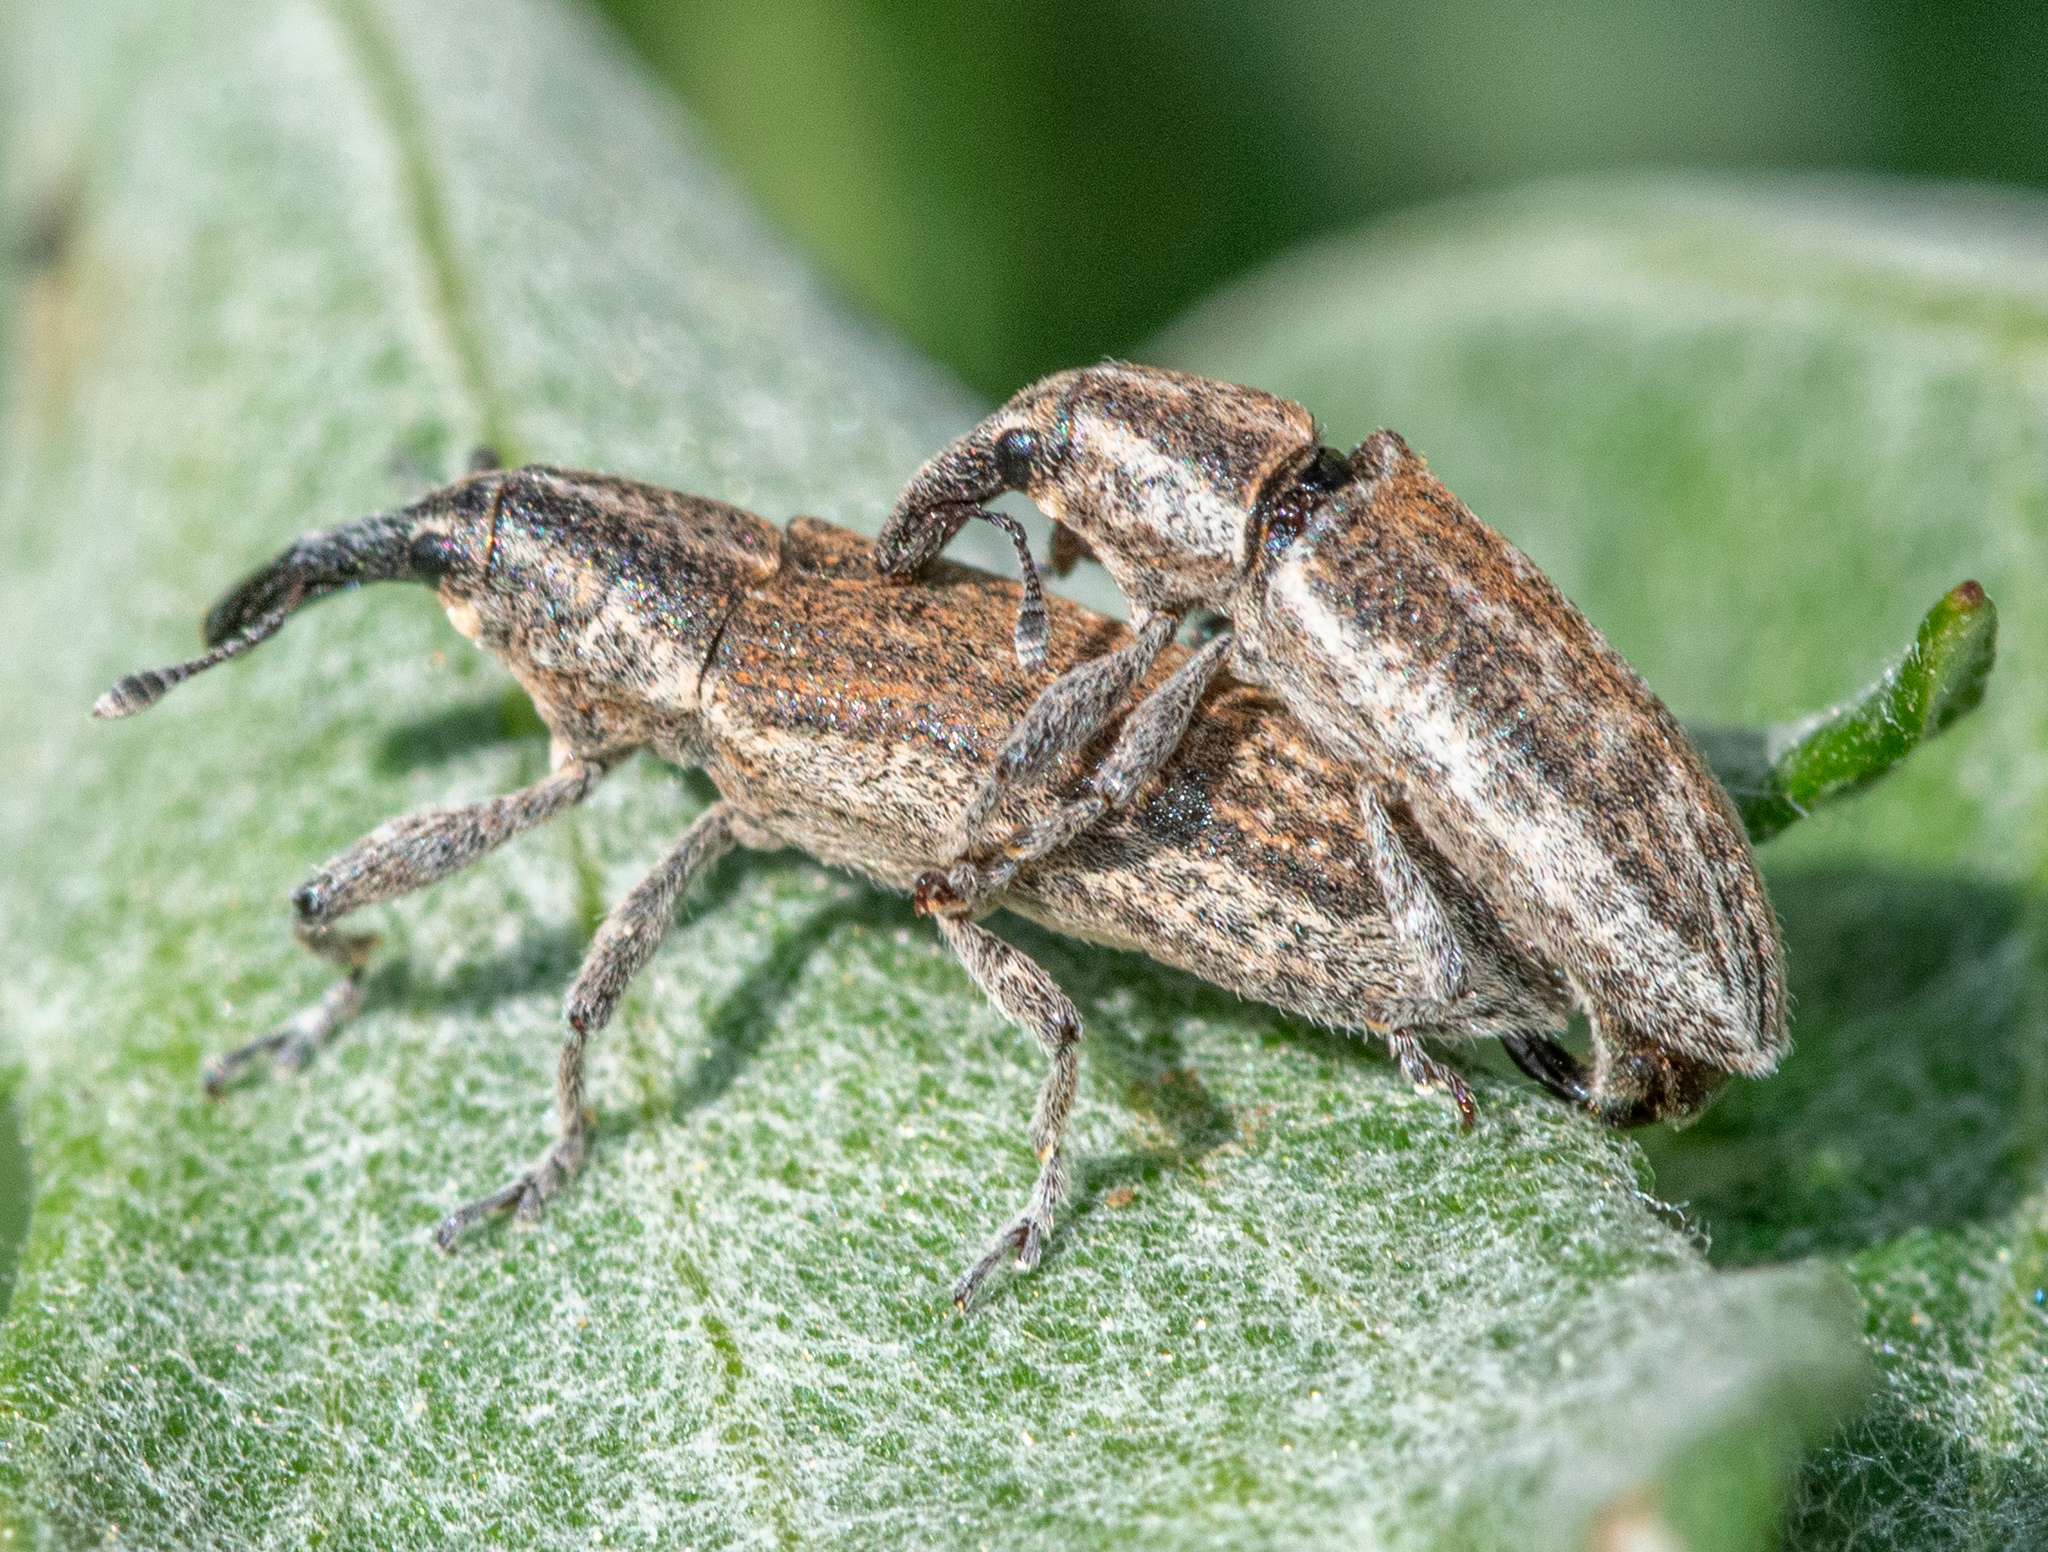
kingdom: Animalia
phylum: Arthropoda
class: Insecta
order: Coleoptera
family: Curculionidae
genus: Lixus
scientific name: Lixus perforatus
